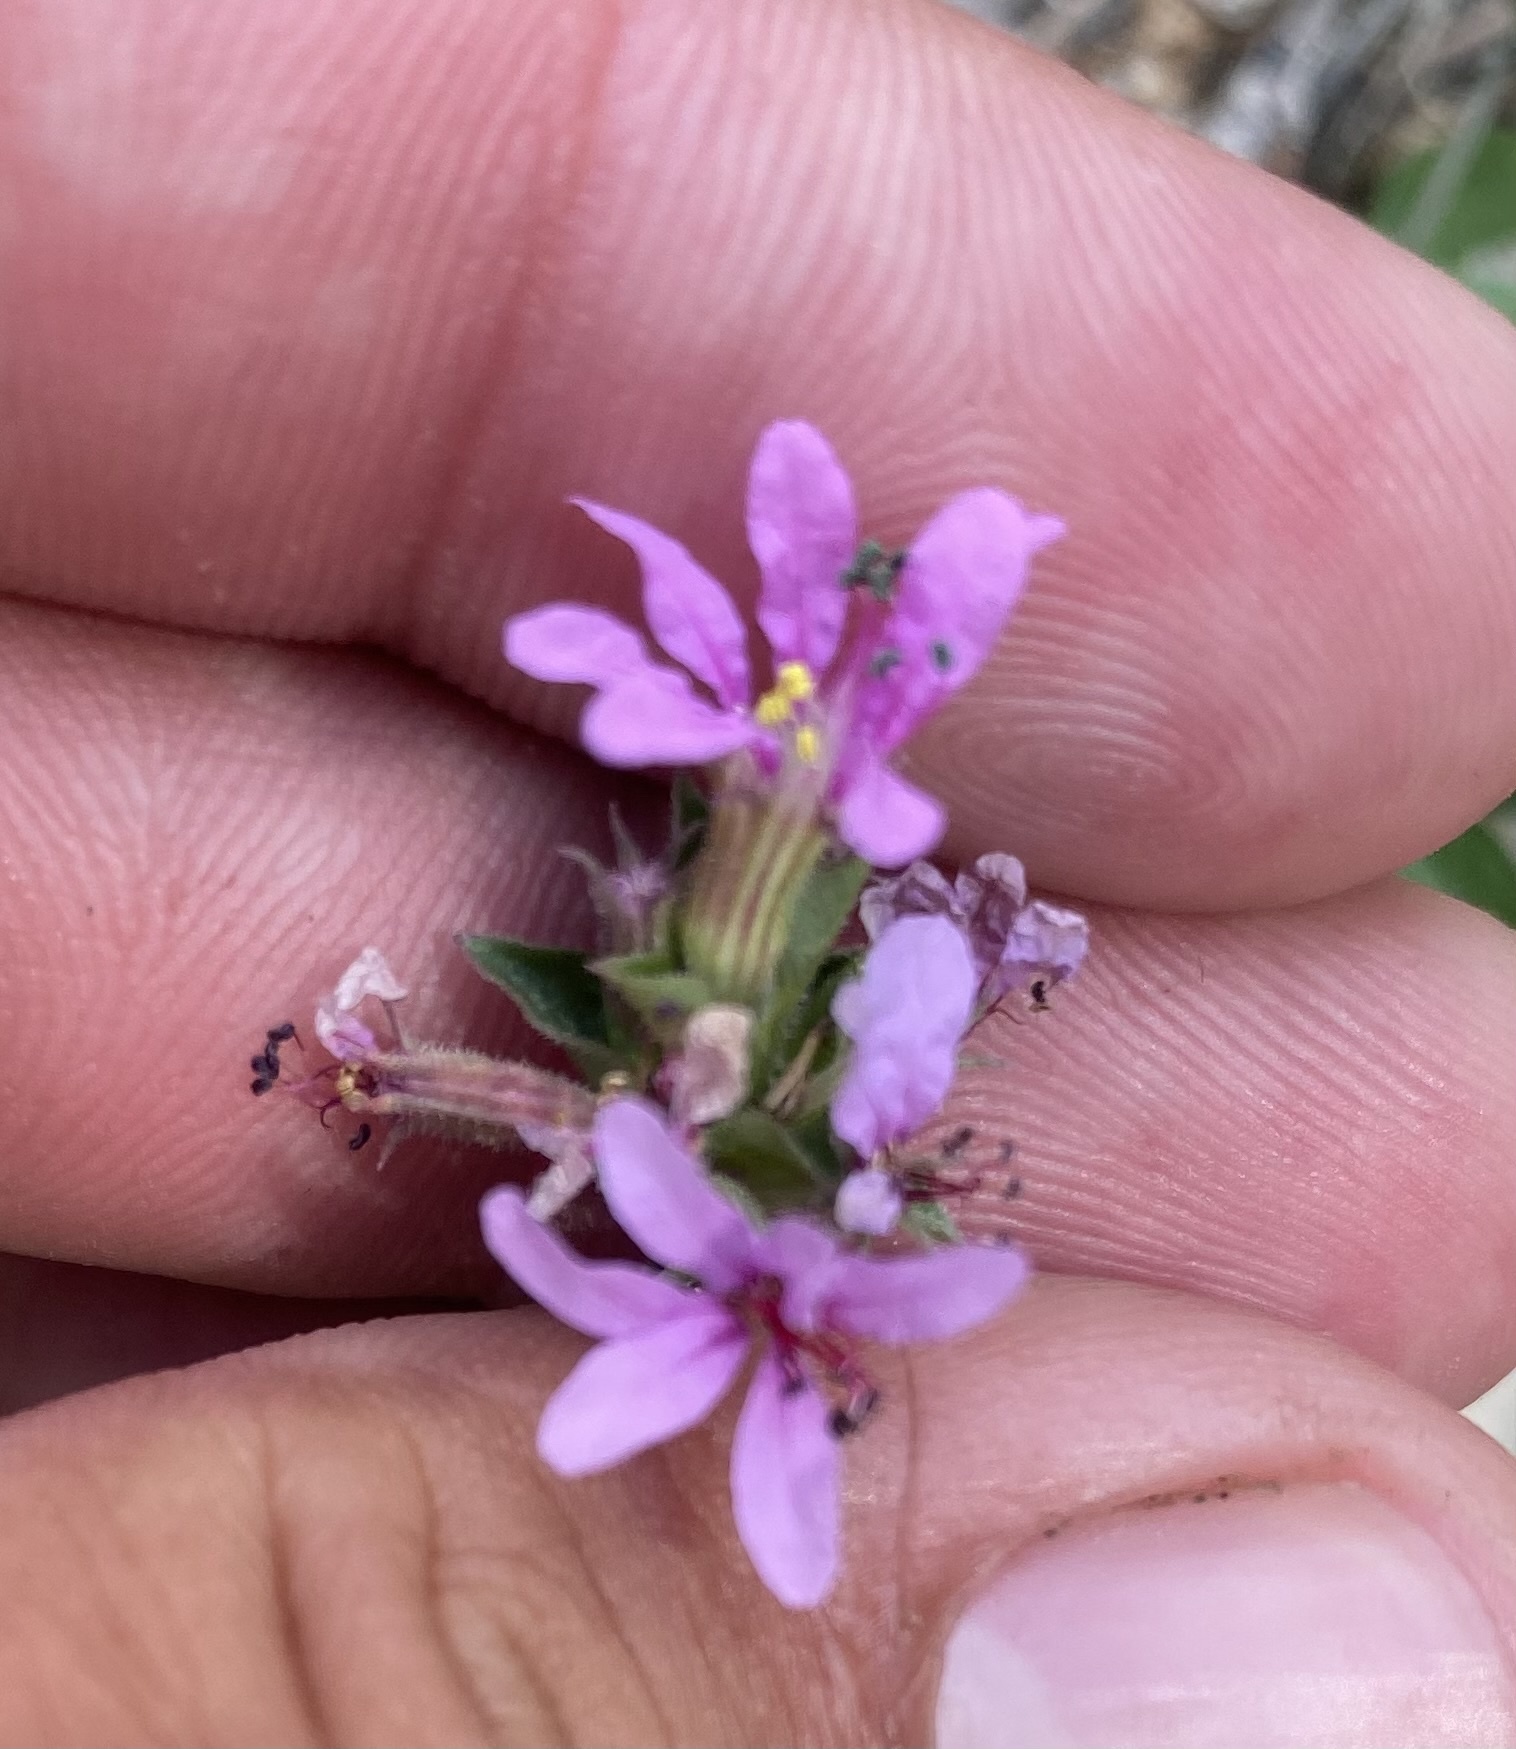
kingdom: Plantae
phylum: Tracheophyta
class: Magnoliopsida
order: Myrtales
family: Lythraceae
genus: Lythrum
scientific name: Lythrum salicaria
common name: Purple loosestrife
